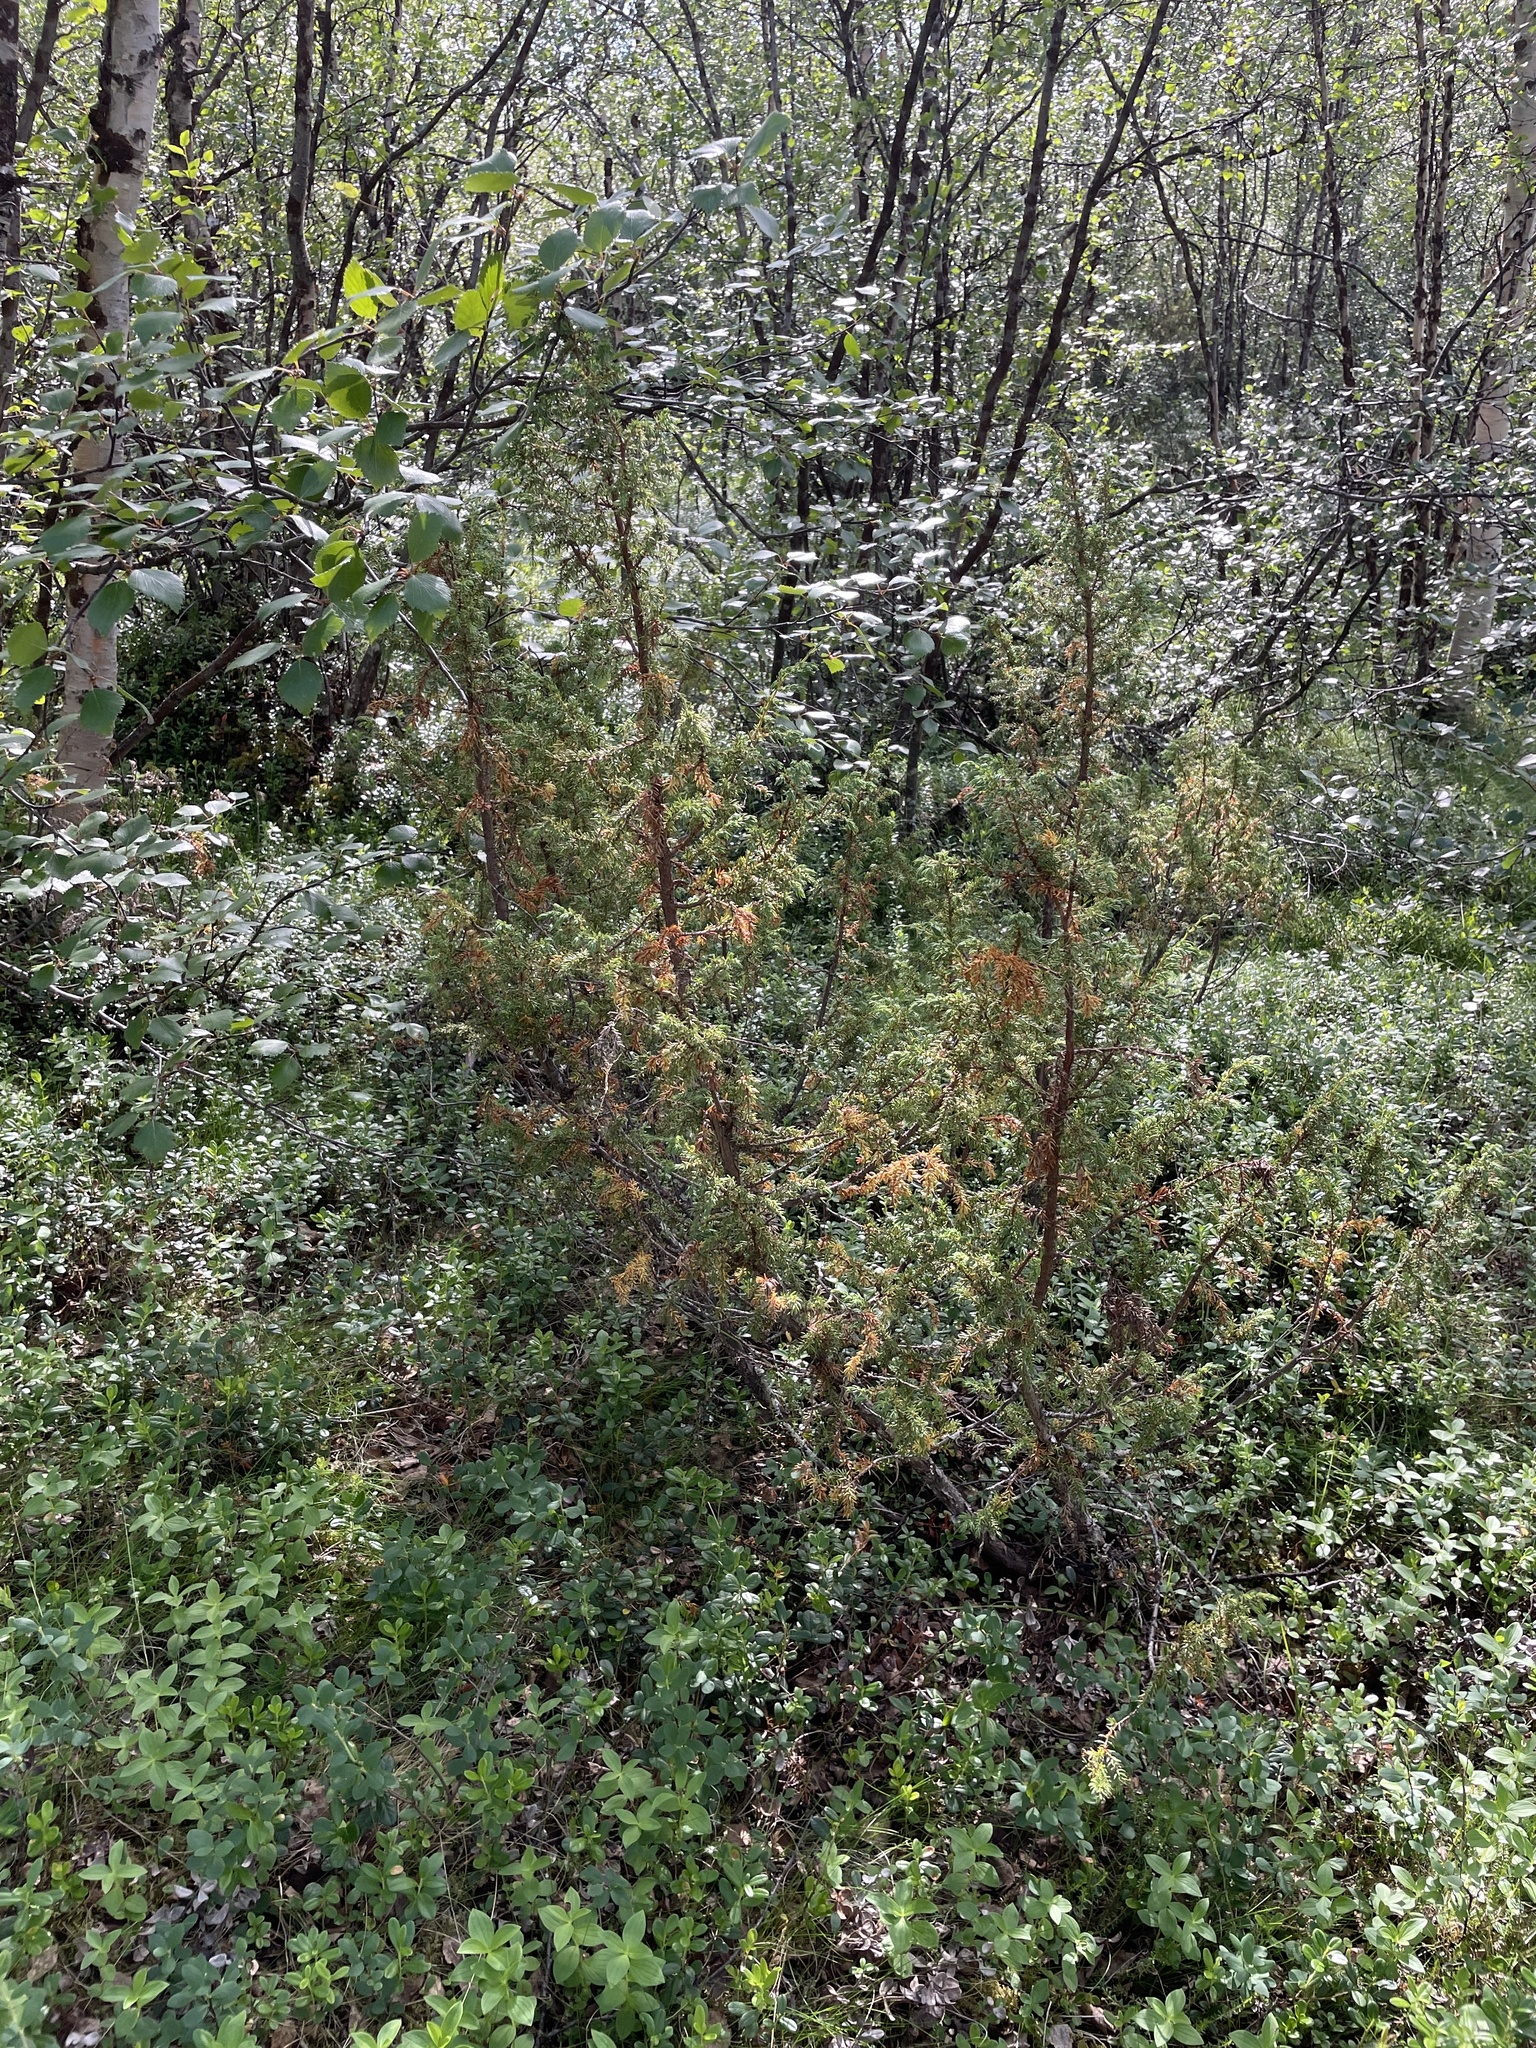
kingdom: Plantae
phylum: Tracheophyta
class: Pinopsida
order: Pinales
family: Cupressaceae
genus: Juniperus
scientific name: Juniperus communis
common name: Common juniper
